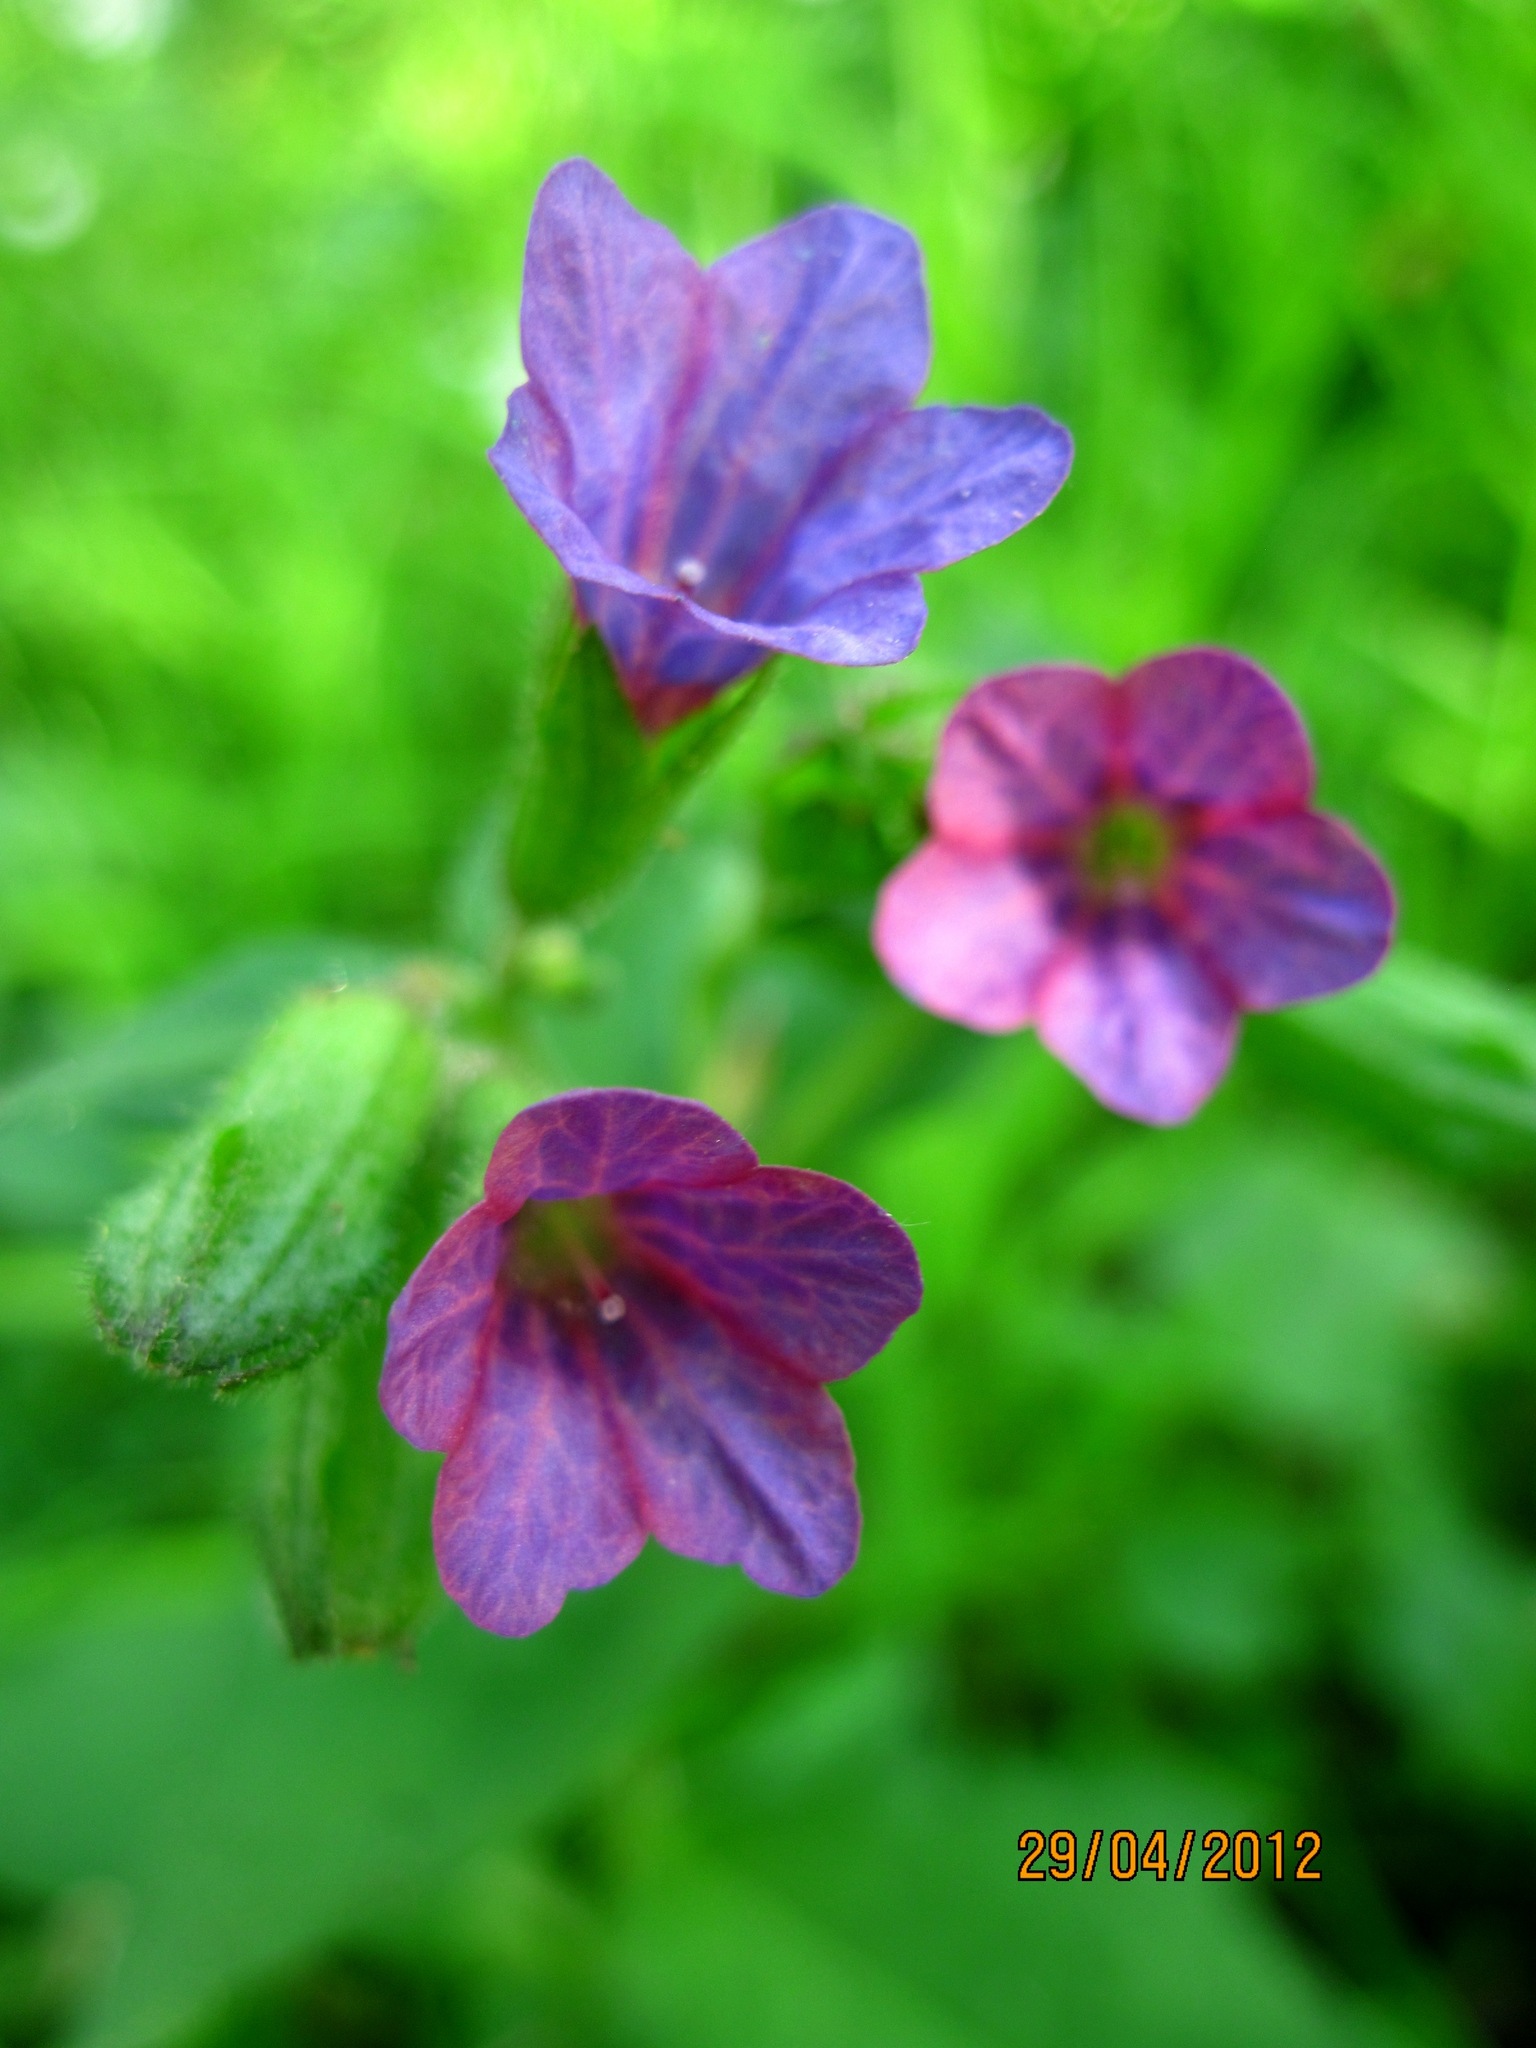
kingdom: Plantae
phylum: Tracheophyta
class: Magnoliopsida
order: Boraginales
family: Boraginaceae
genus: Pulmonaria
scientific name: Pulmonaria obscura
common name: Suffolk lungwort
